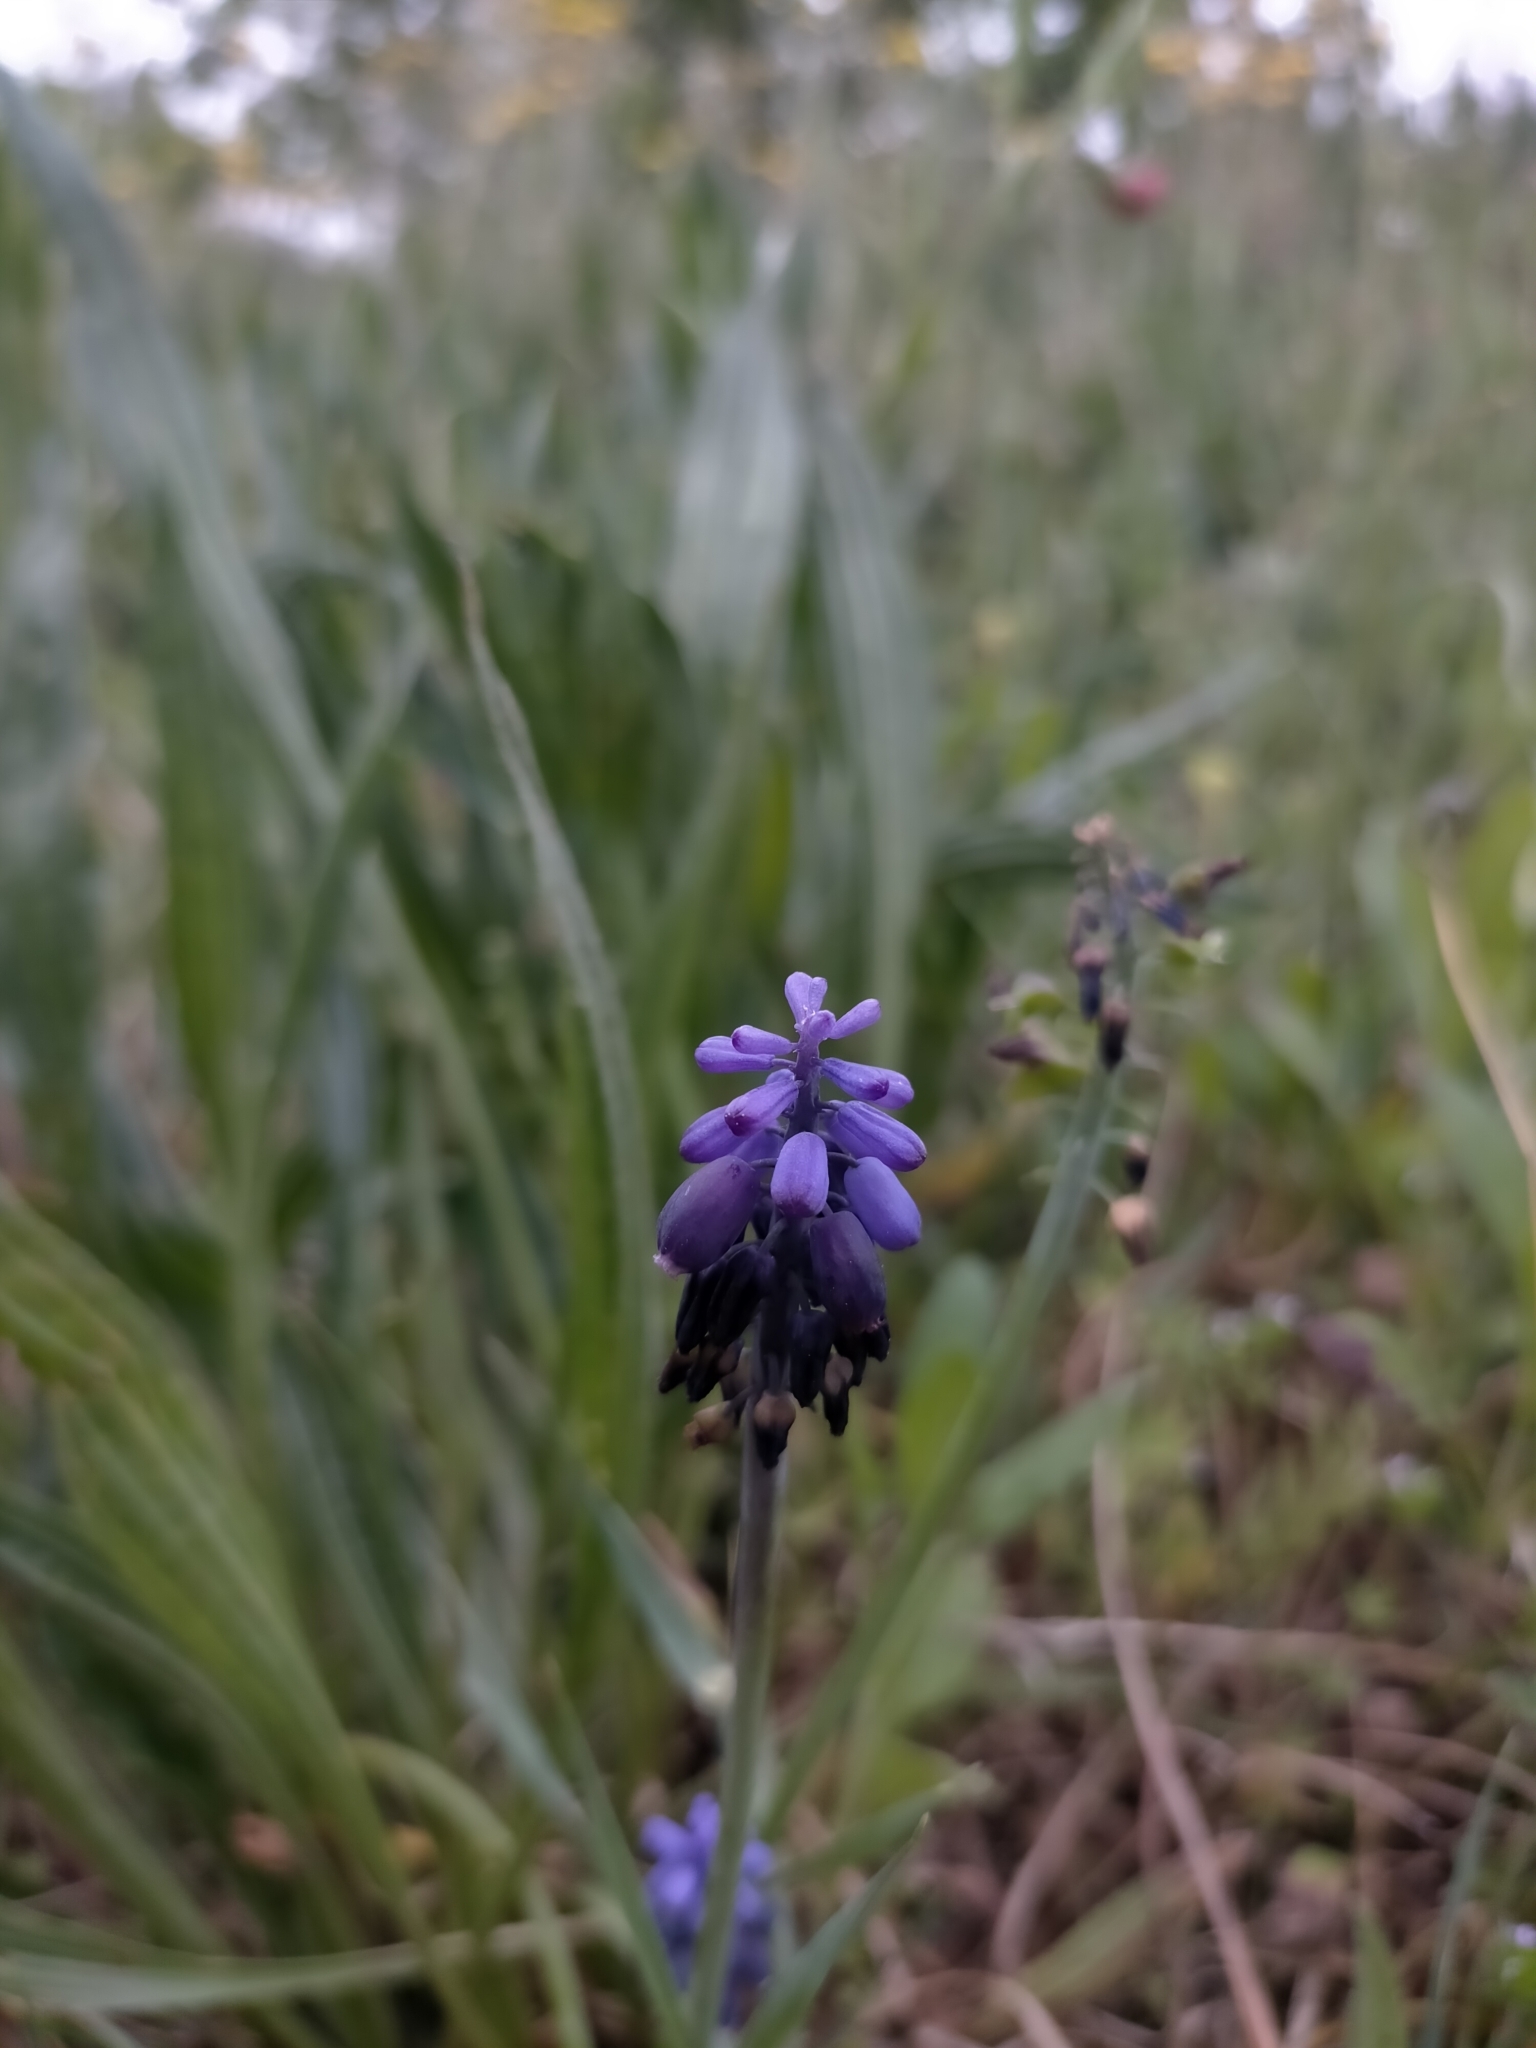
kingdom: Plantae
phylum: Tracheophyta
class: Liliopsida
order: Asparagales
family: Asparagaceae
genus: Muscari
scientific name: Muscari neglectum
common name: Grape-hyacinth
